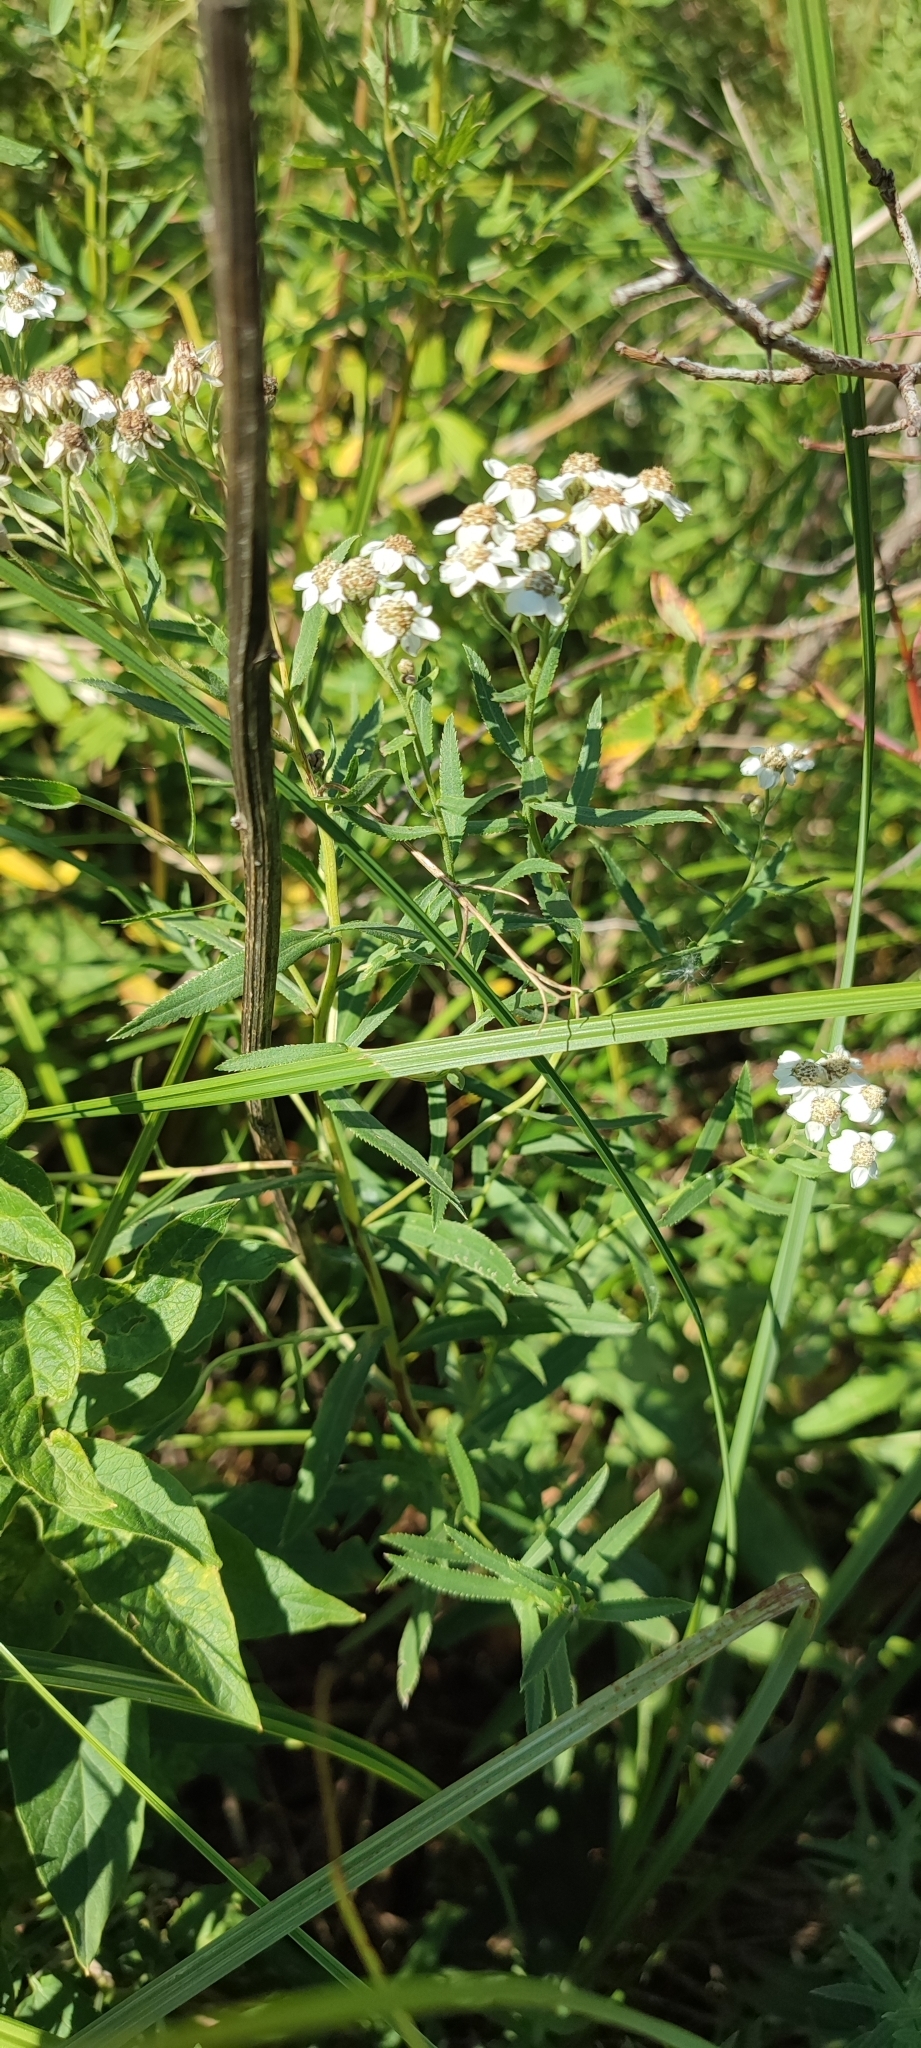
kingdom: Plantae
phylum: Tracheophyta
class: Magnoliopsida
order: Asterales
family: Asteraceae
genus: Achillea
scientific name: Achillea salicifolia
